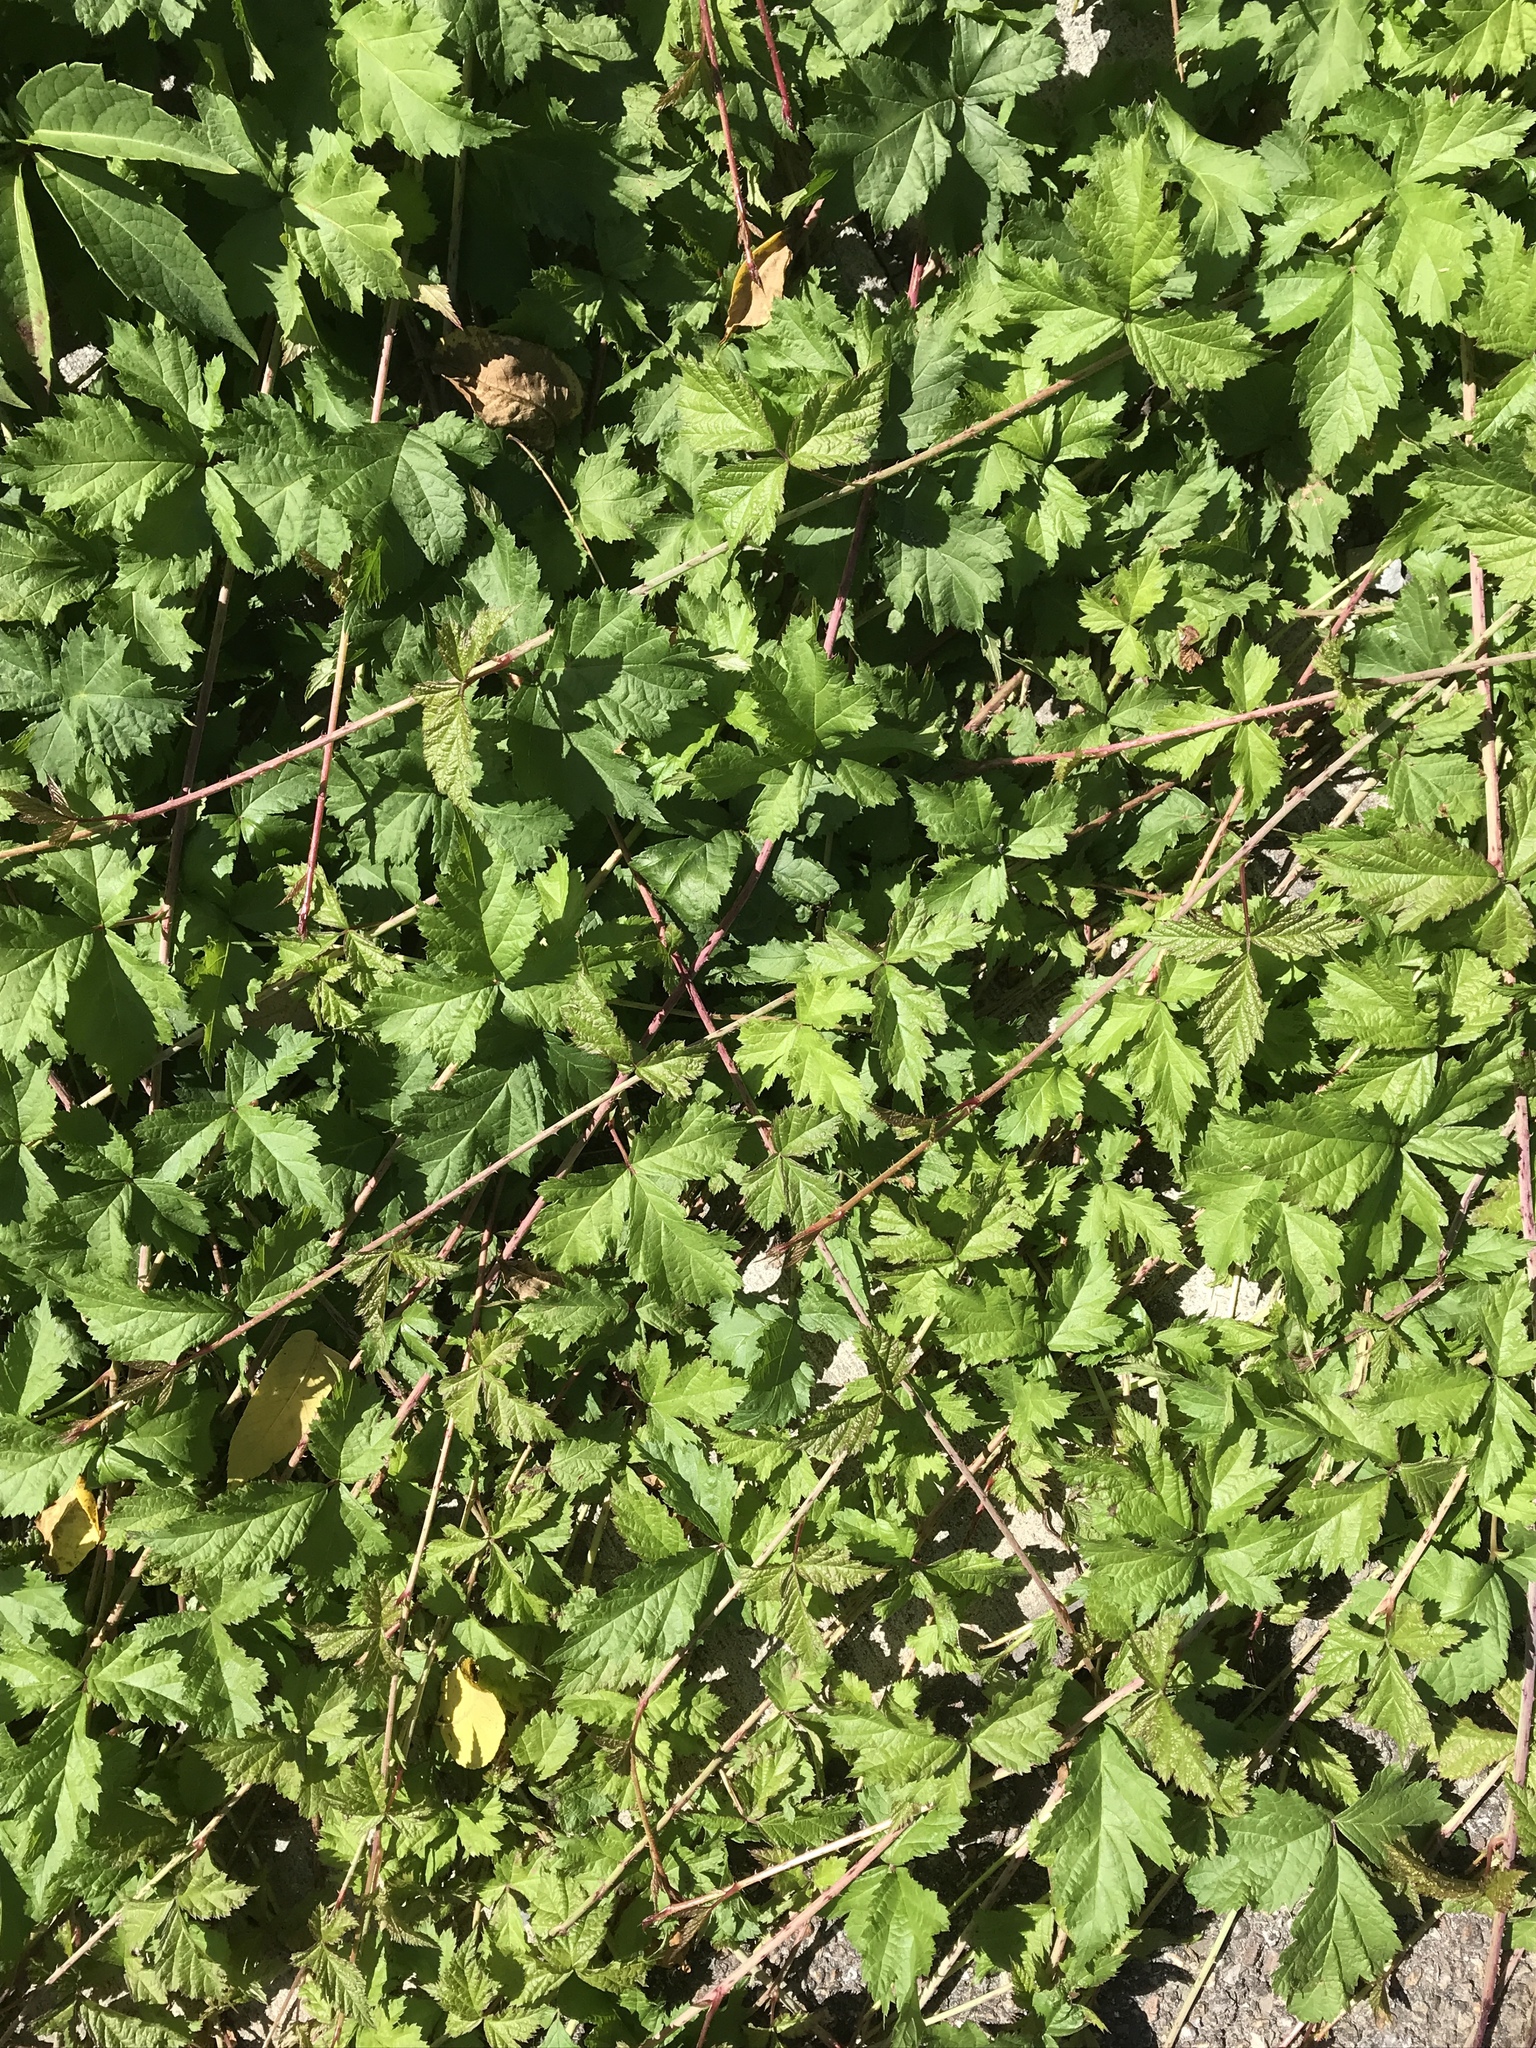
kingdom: Plantae
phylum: Tracheophyta
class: Magnoliopsida
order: Rosales
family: Rosaceae
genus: Rubus
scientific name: Rubus caesius
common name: Dewberry
